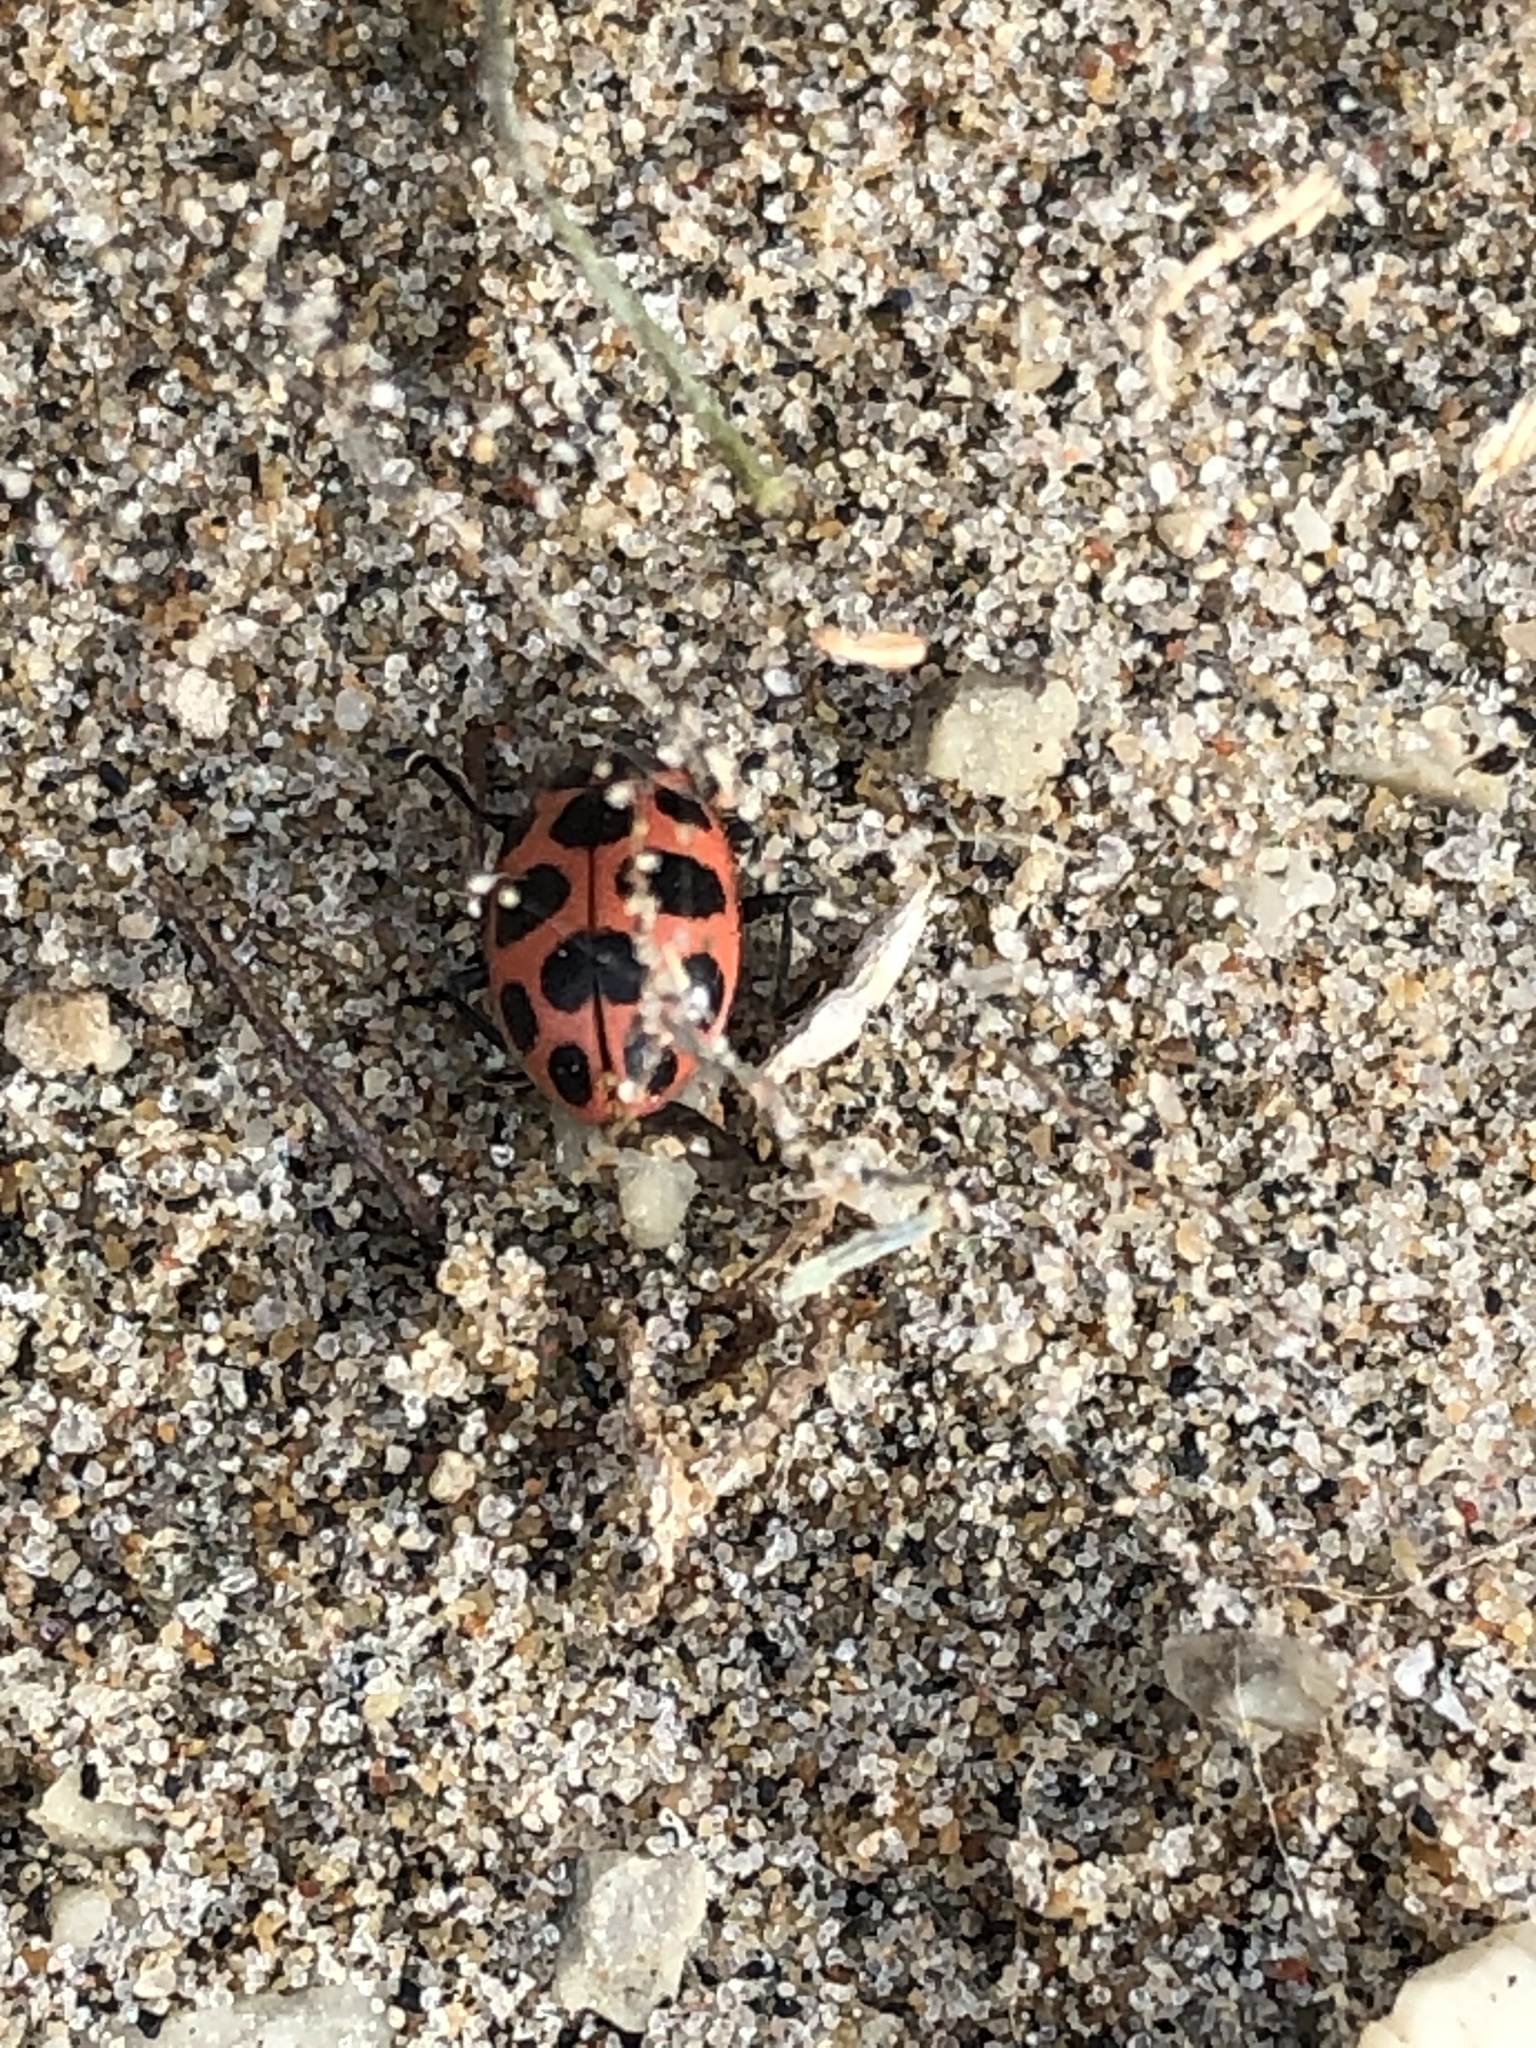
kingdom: Animalia
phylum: Arthropoda
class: Insecta
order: Coleoptera
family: Coccinellidae
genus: Coleomegilla
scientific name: Coleomegilla maculata
